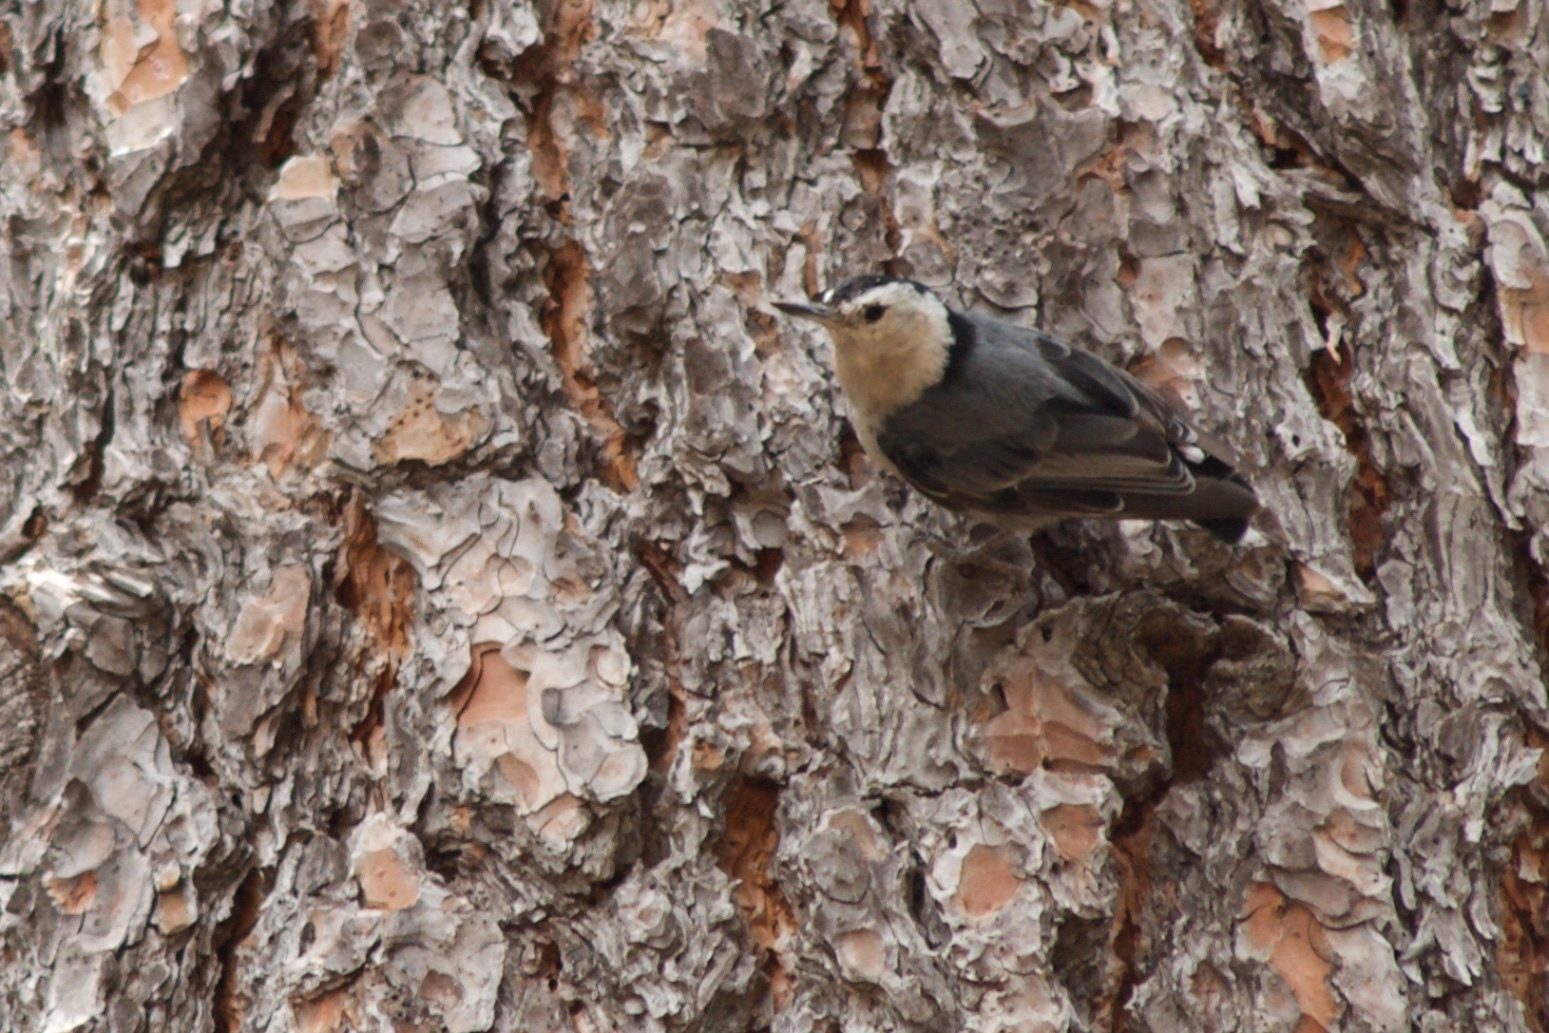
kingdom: Animalia
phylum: Chordata
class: Aves
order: Passeriformes
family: Sittidae
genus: Sitta
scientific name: Sitta carolinensis
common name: White-breasted nuthatch
